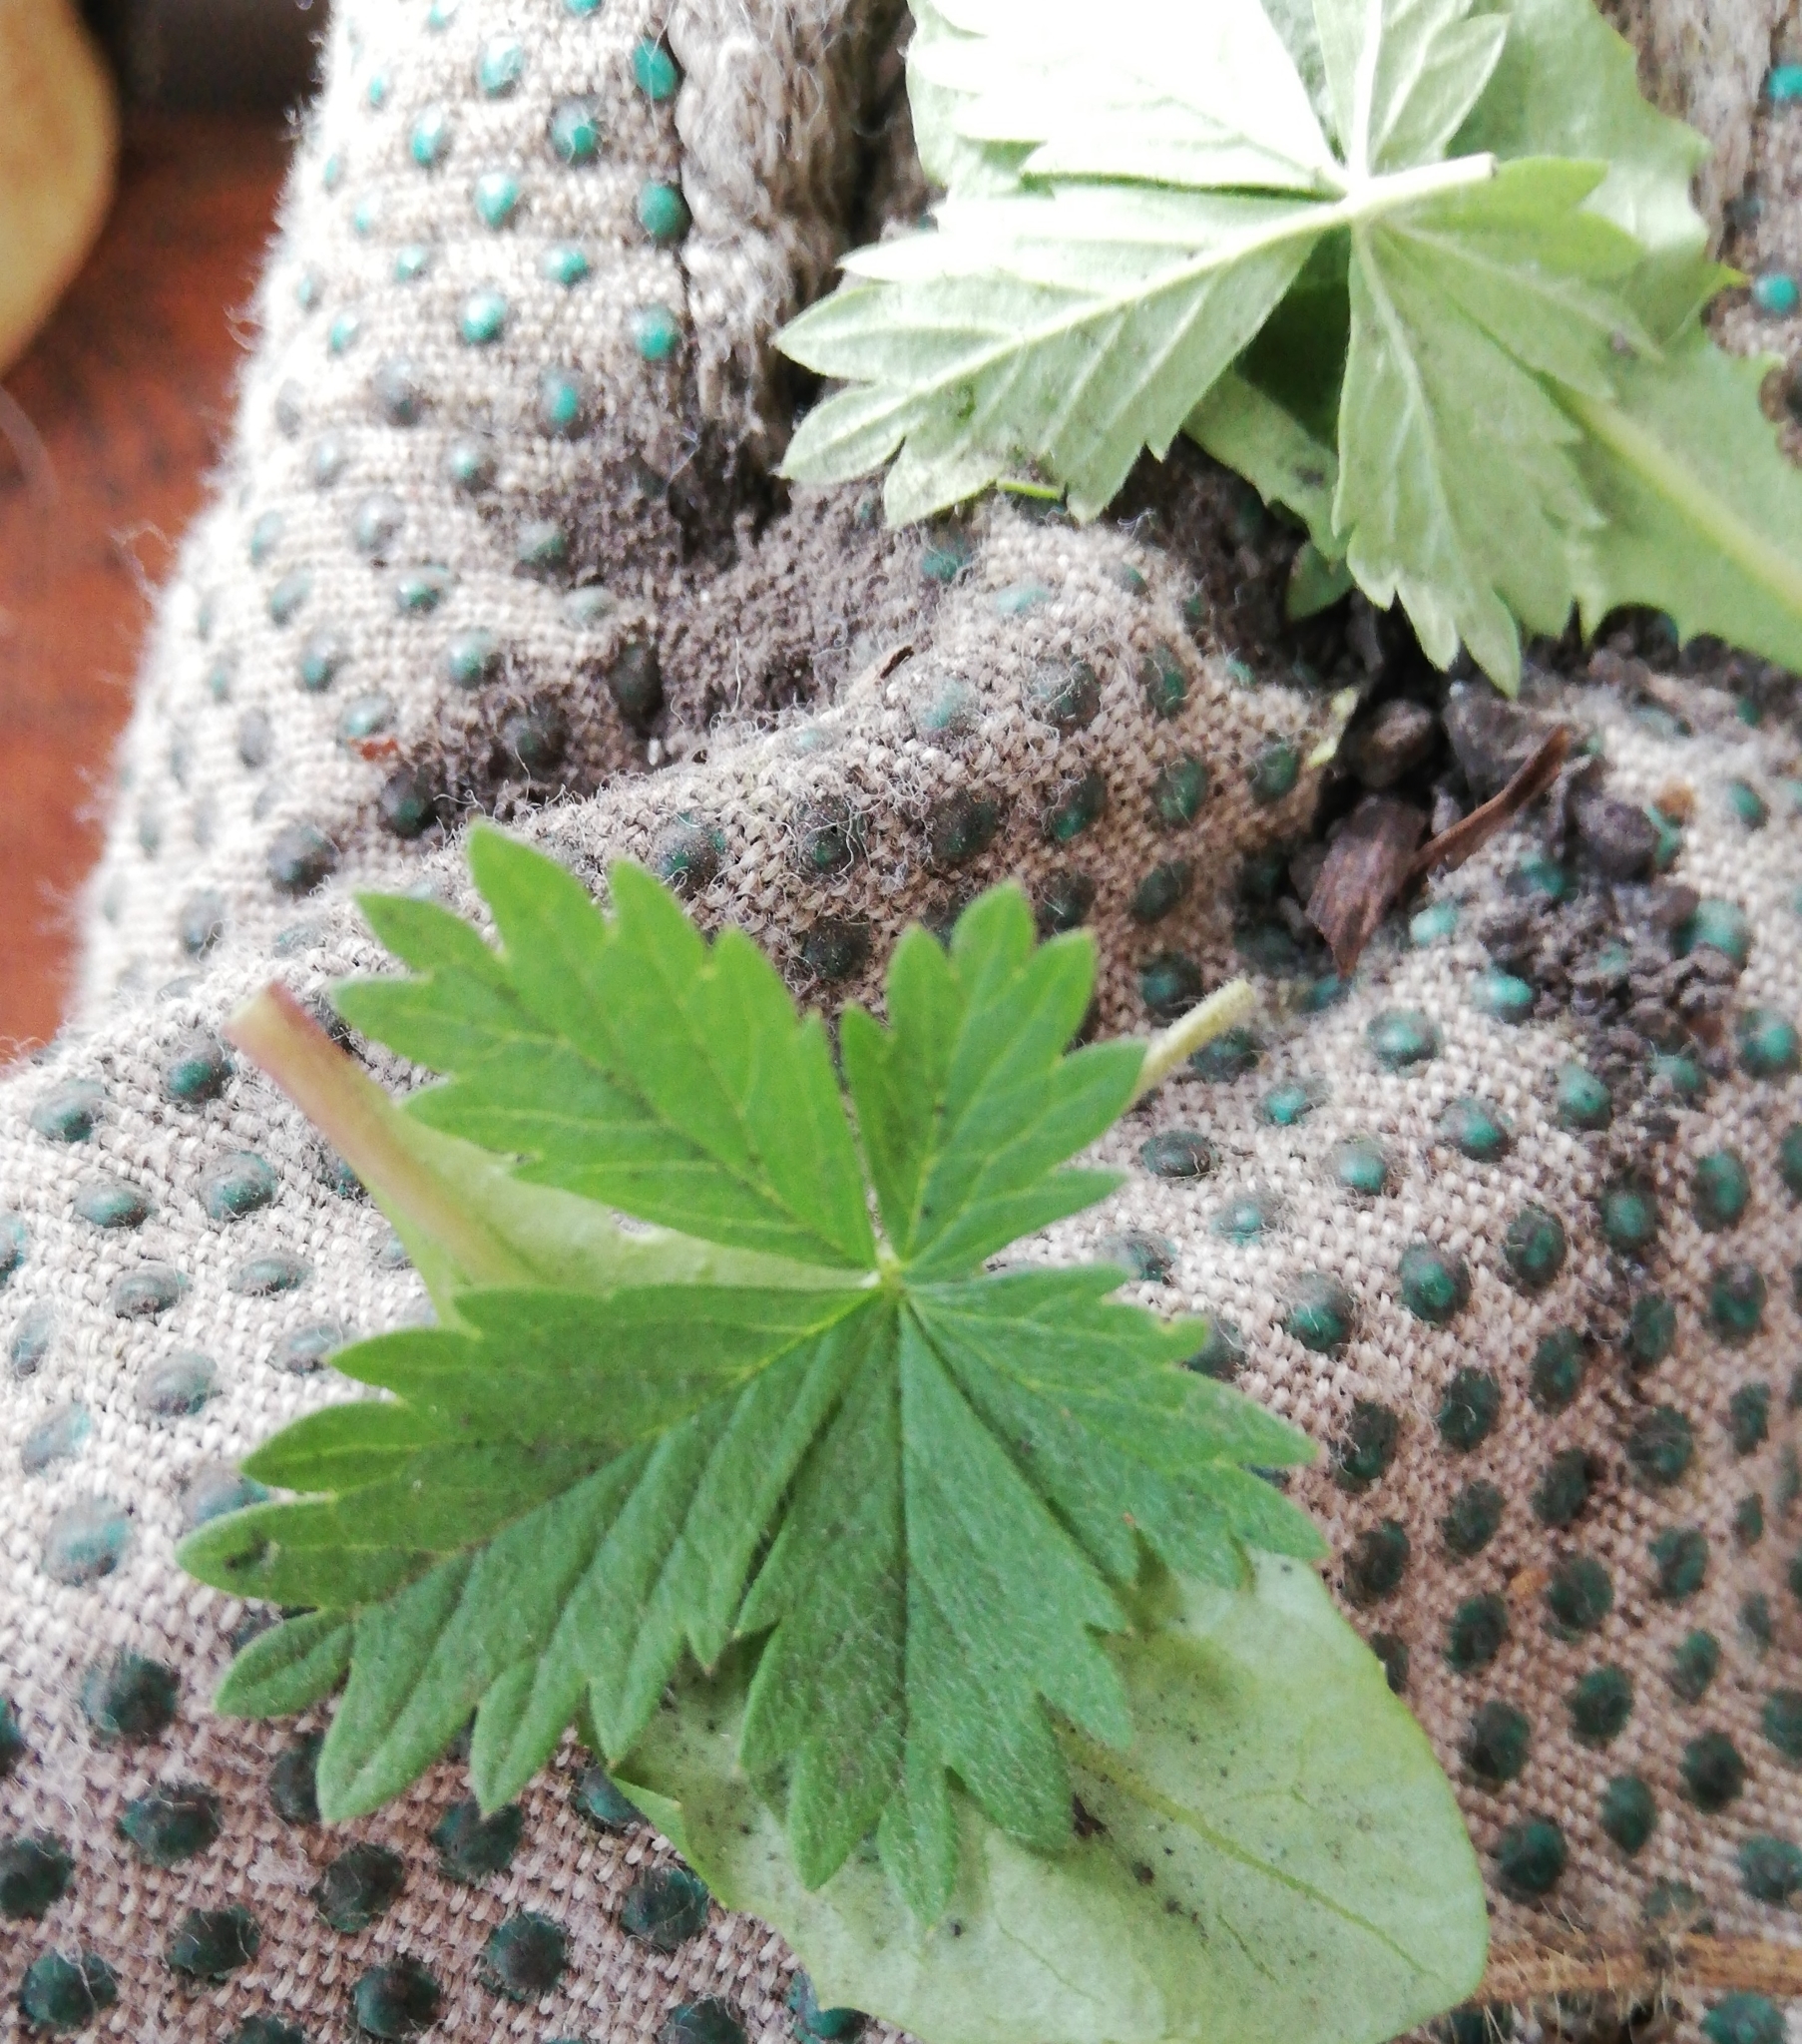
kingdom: Plantae
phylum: Tracheophyta
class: Magnoliopsida
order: Rosales
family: Rosaceae
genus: Potentilla
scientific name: Potentilla argentea
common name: Hoary cinquefoil
